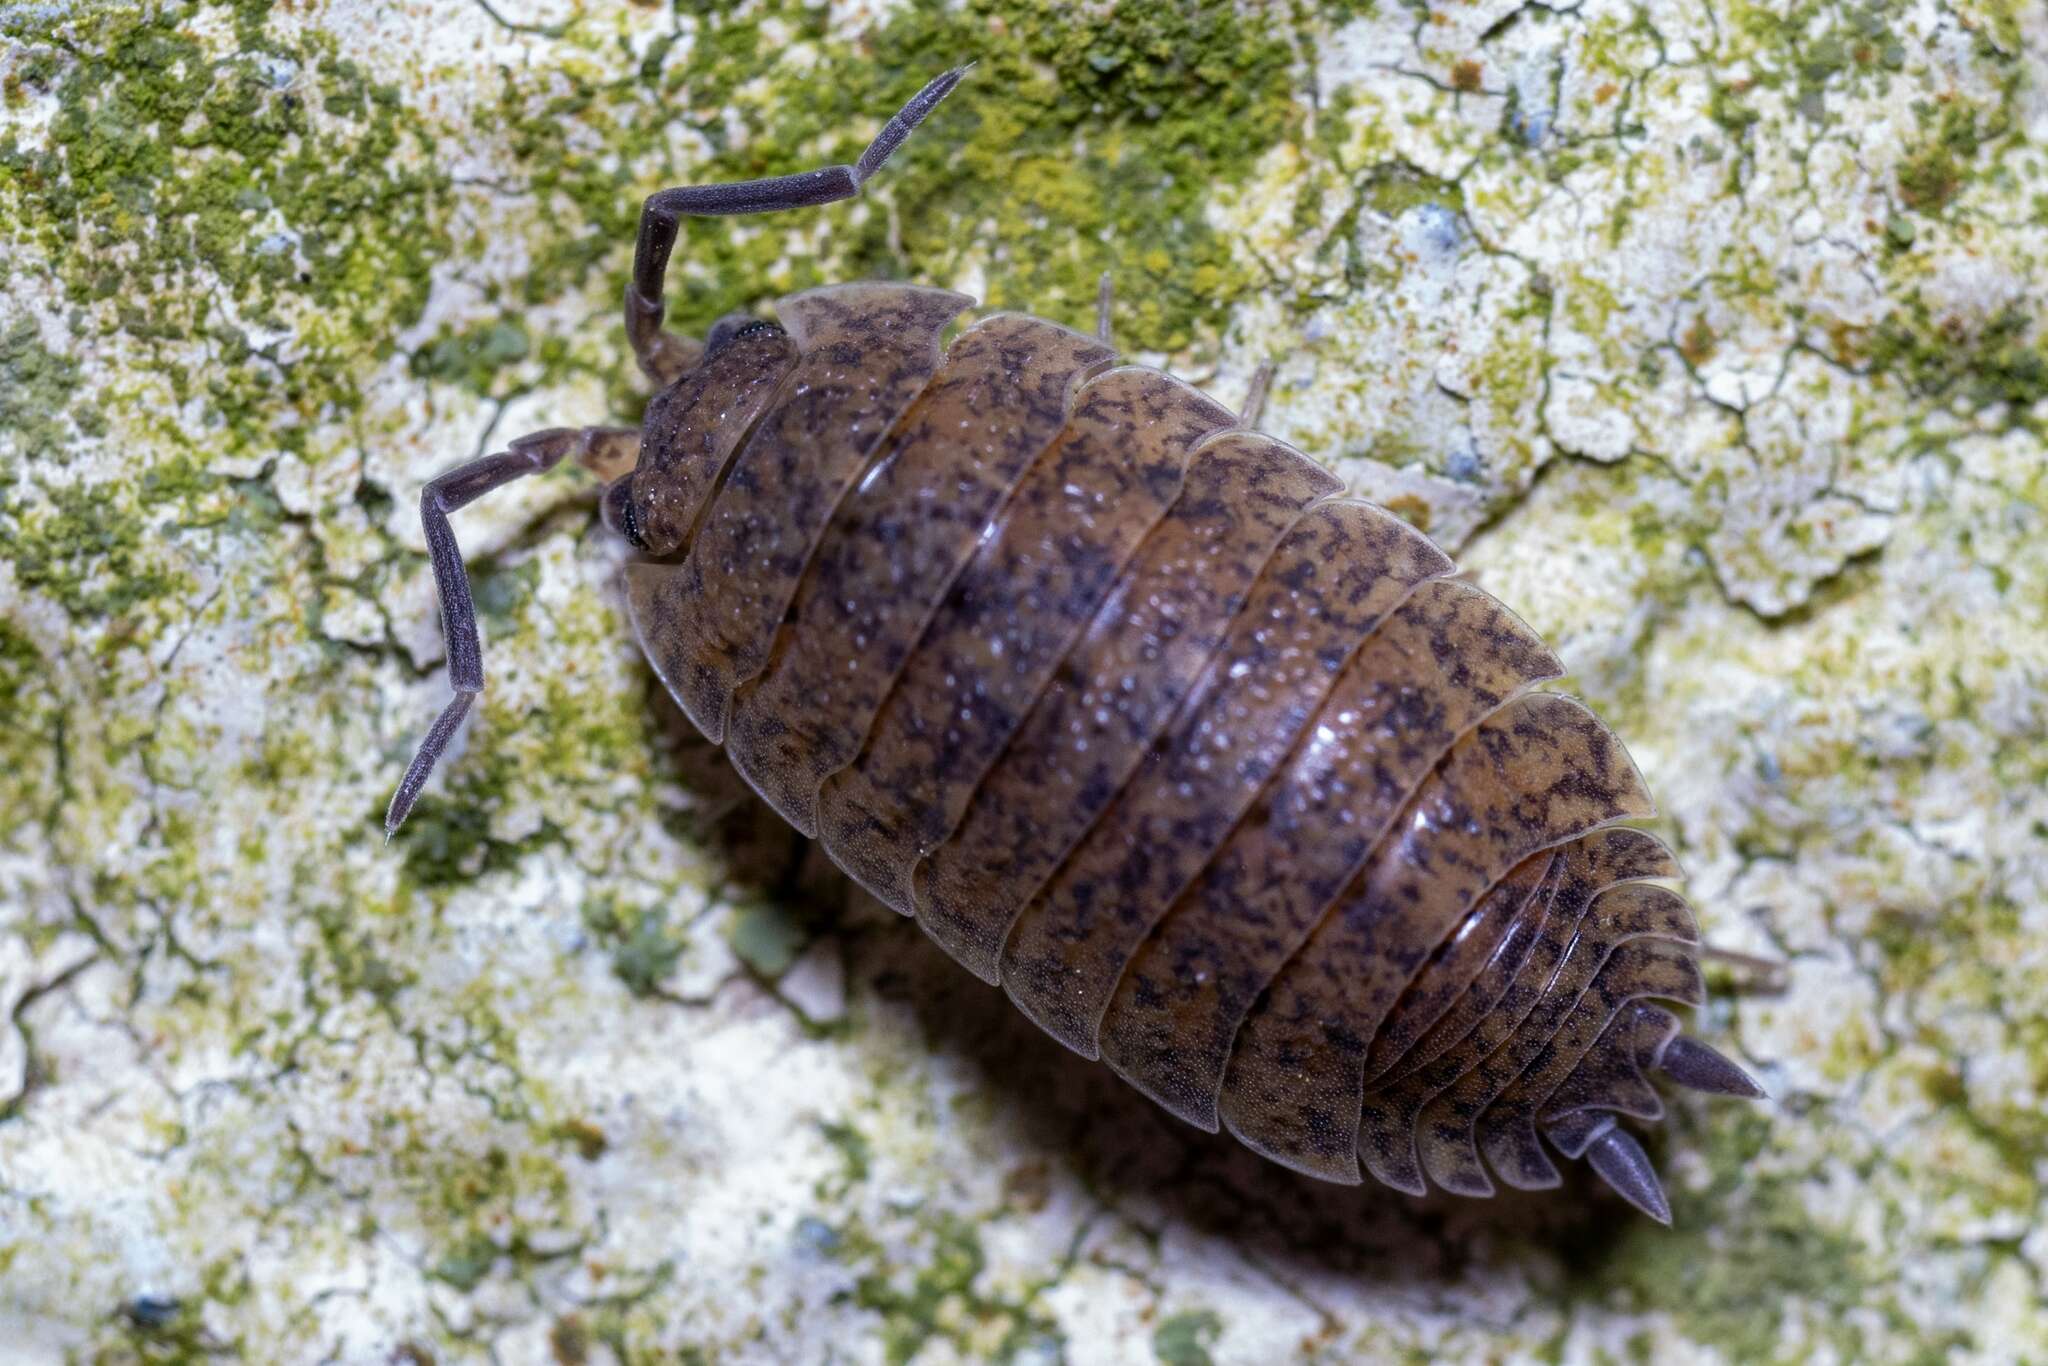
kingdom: Animalia
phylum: Arthropoda
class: Malacostraca
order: Isopoda
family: Porcellionidae
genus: Porcellio
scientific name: Porcellio scaber
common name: Common rough woodlouse
